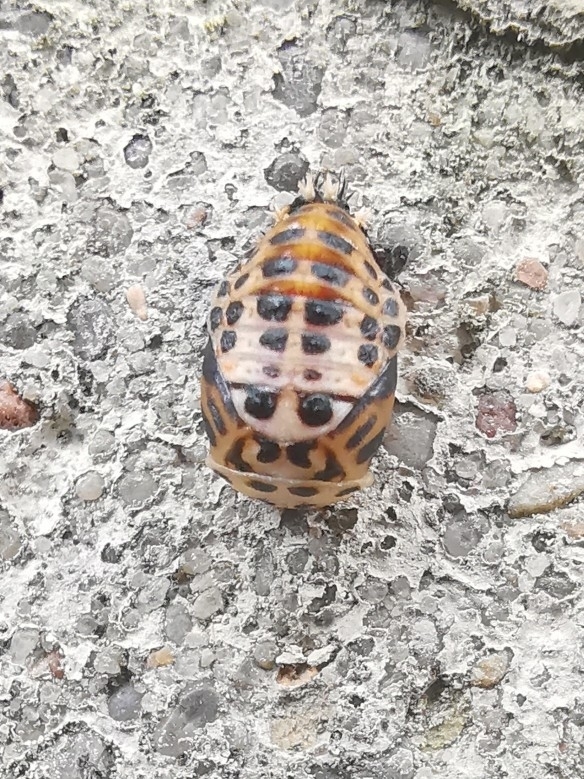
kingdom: Animalia
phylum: Arthropoda
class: Insecta
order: Coleoptera
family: Coccinellidae
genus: Harmonia
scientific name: Harmonia quadripunctata
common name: Cream-streaked ladybird
